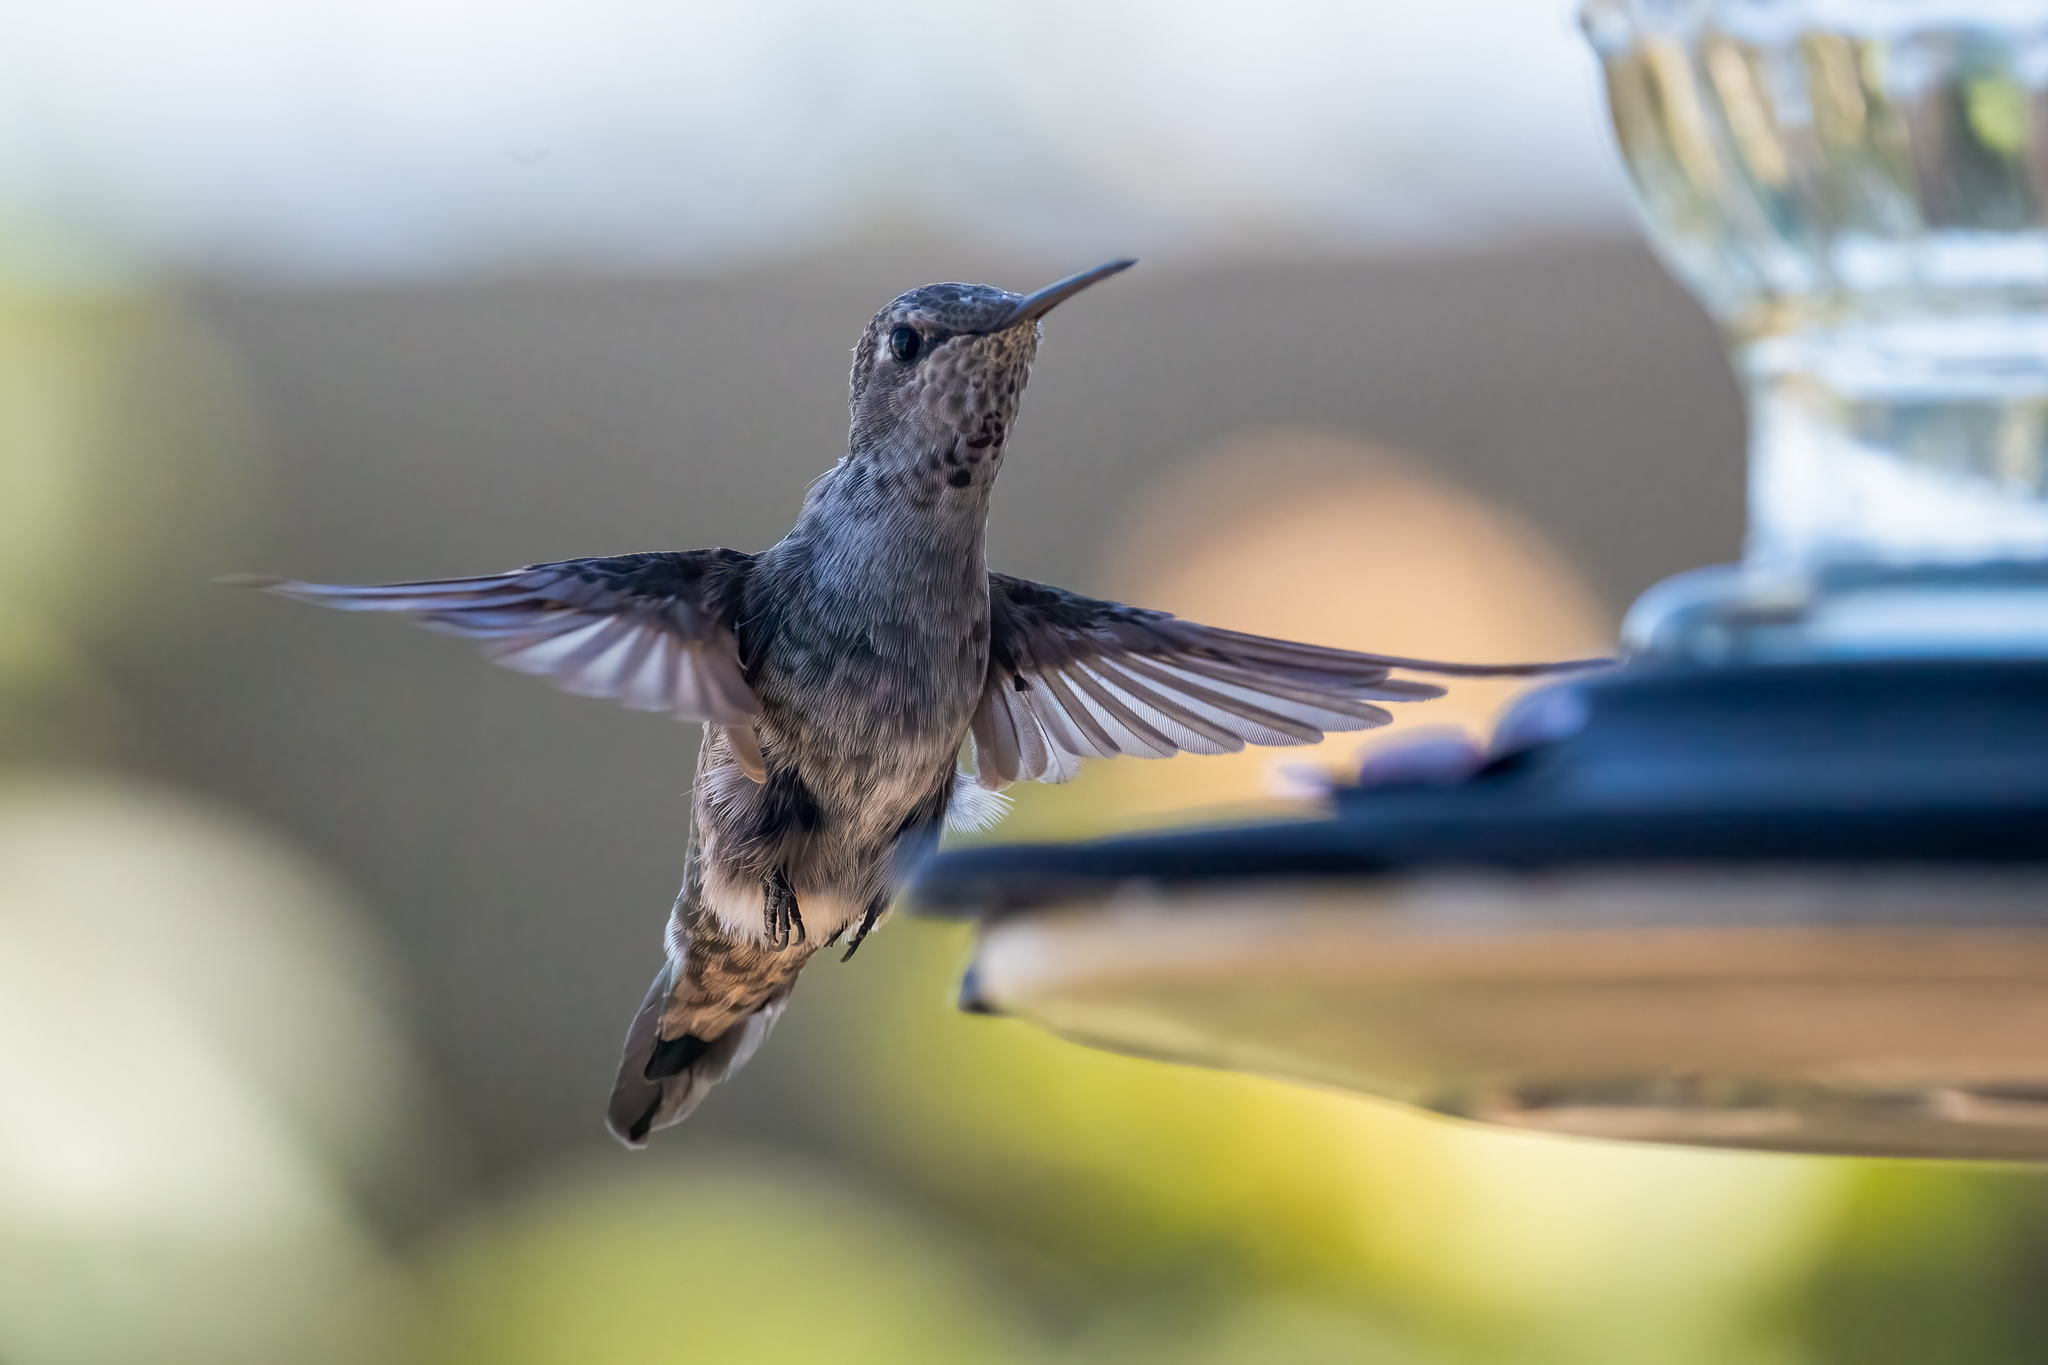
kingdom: Animalia
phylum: Chordata
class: Aves
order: Apodiformes
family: Trochilidae
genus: Archilochus
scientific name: Archilochus alexandri
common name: Black-chinned hummingbird
